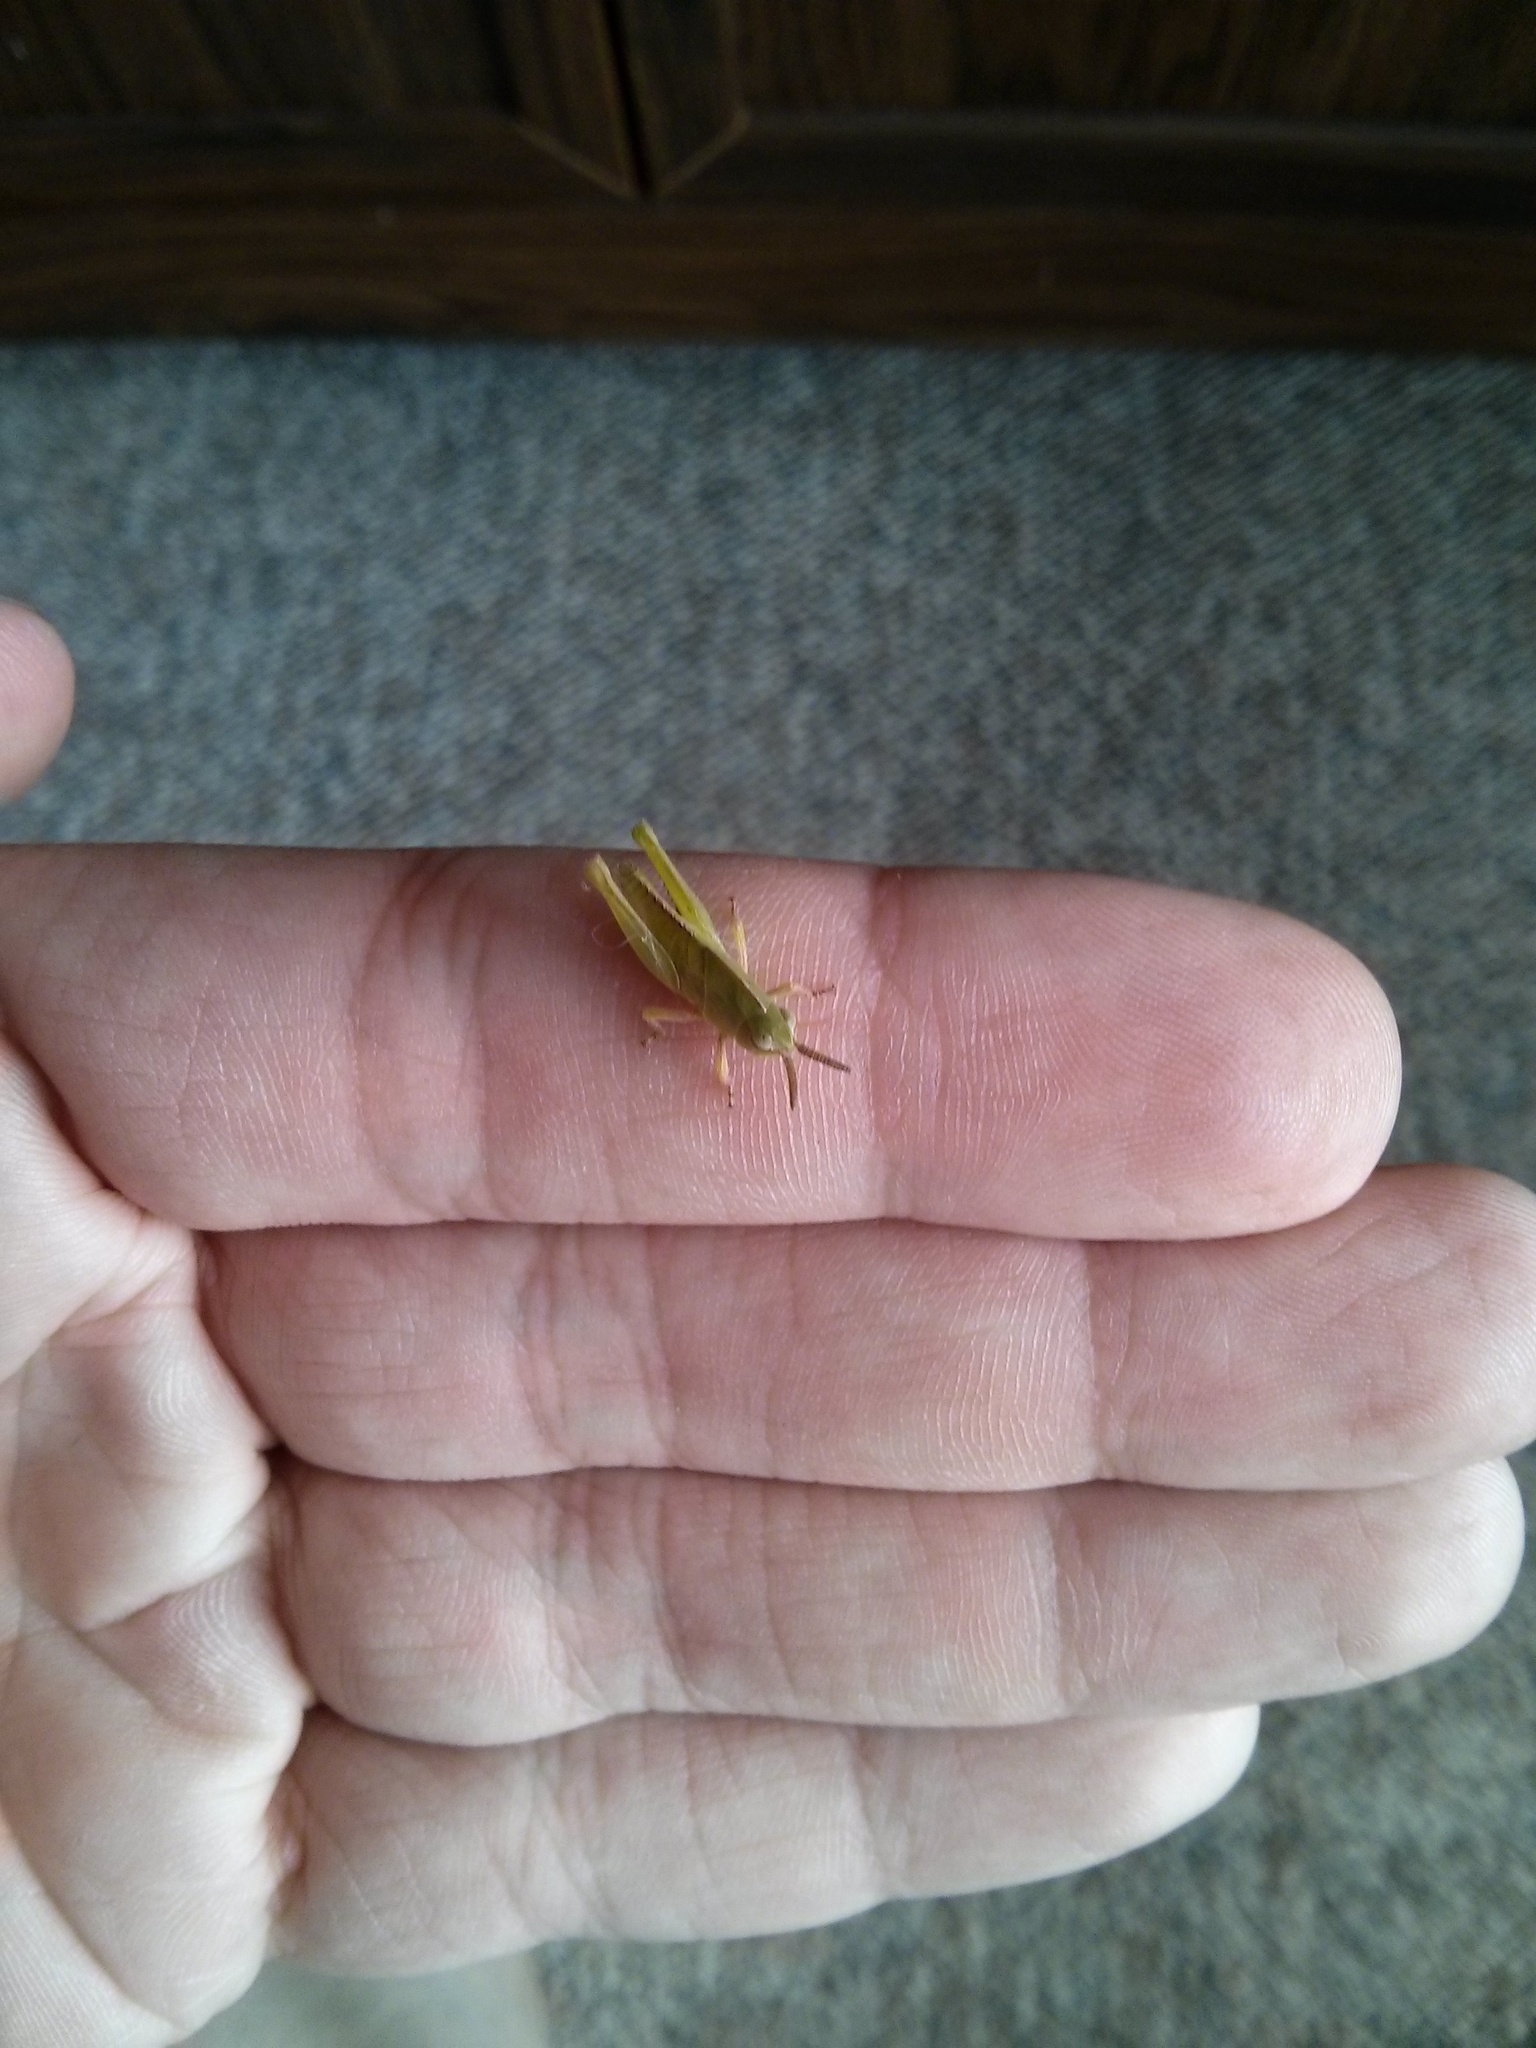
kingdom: Animalia
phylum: Arthropoda
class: Insecta
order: Orthoptera
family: Acrididae
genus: Chortophaga
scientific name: Chortophaga viridifasciata
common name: Green-striped grasshopper
